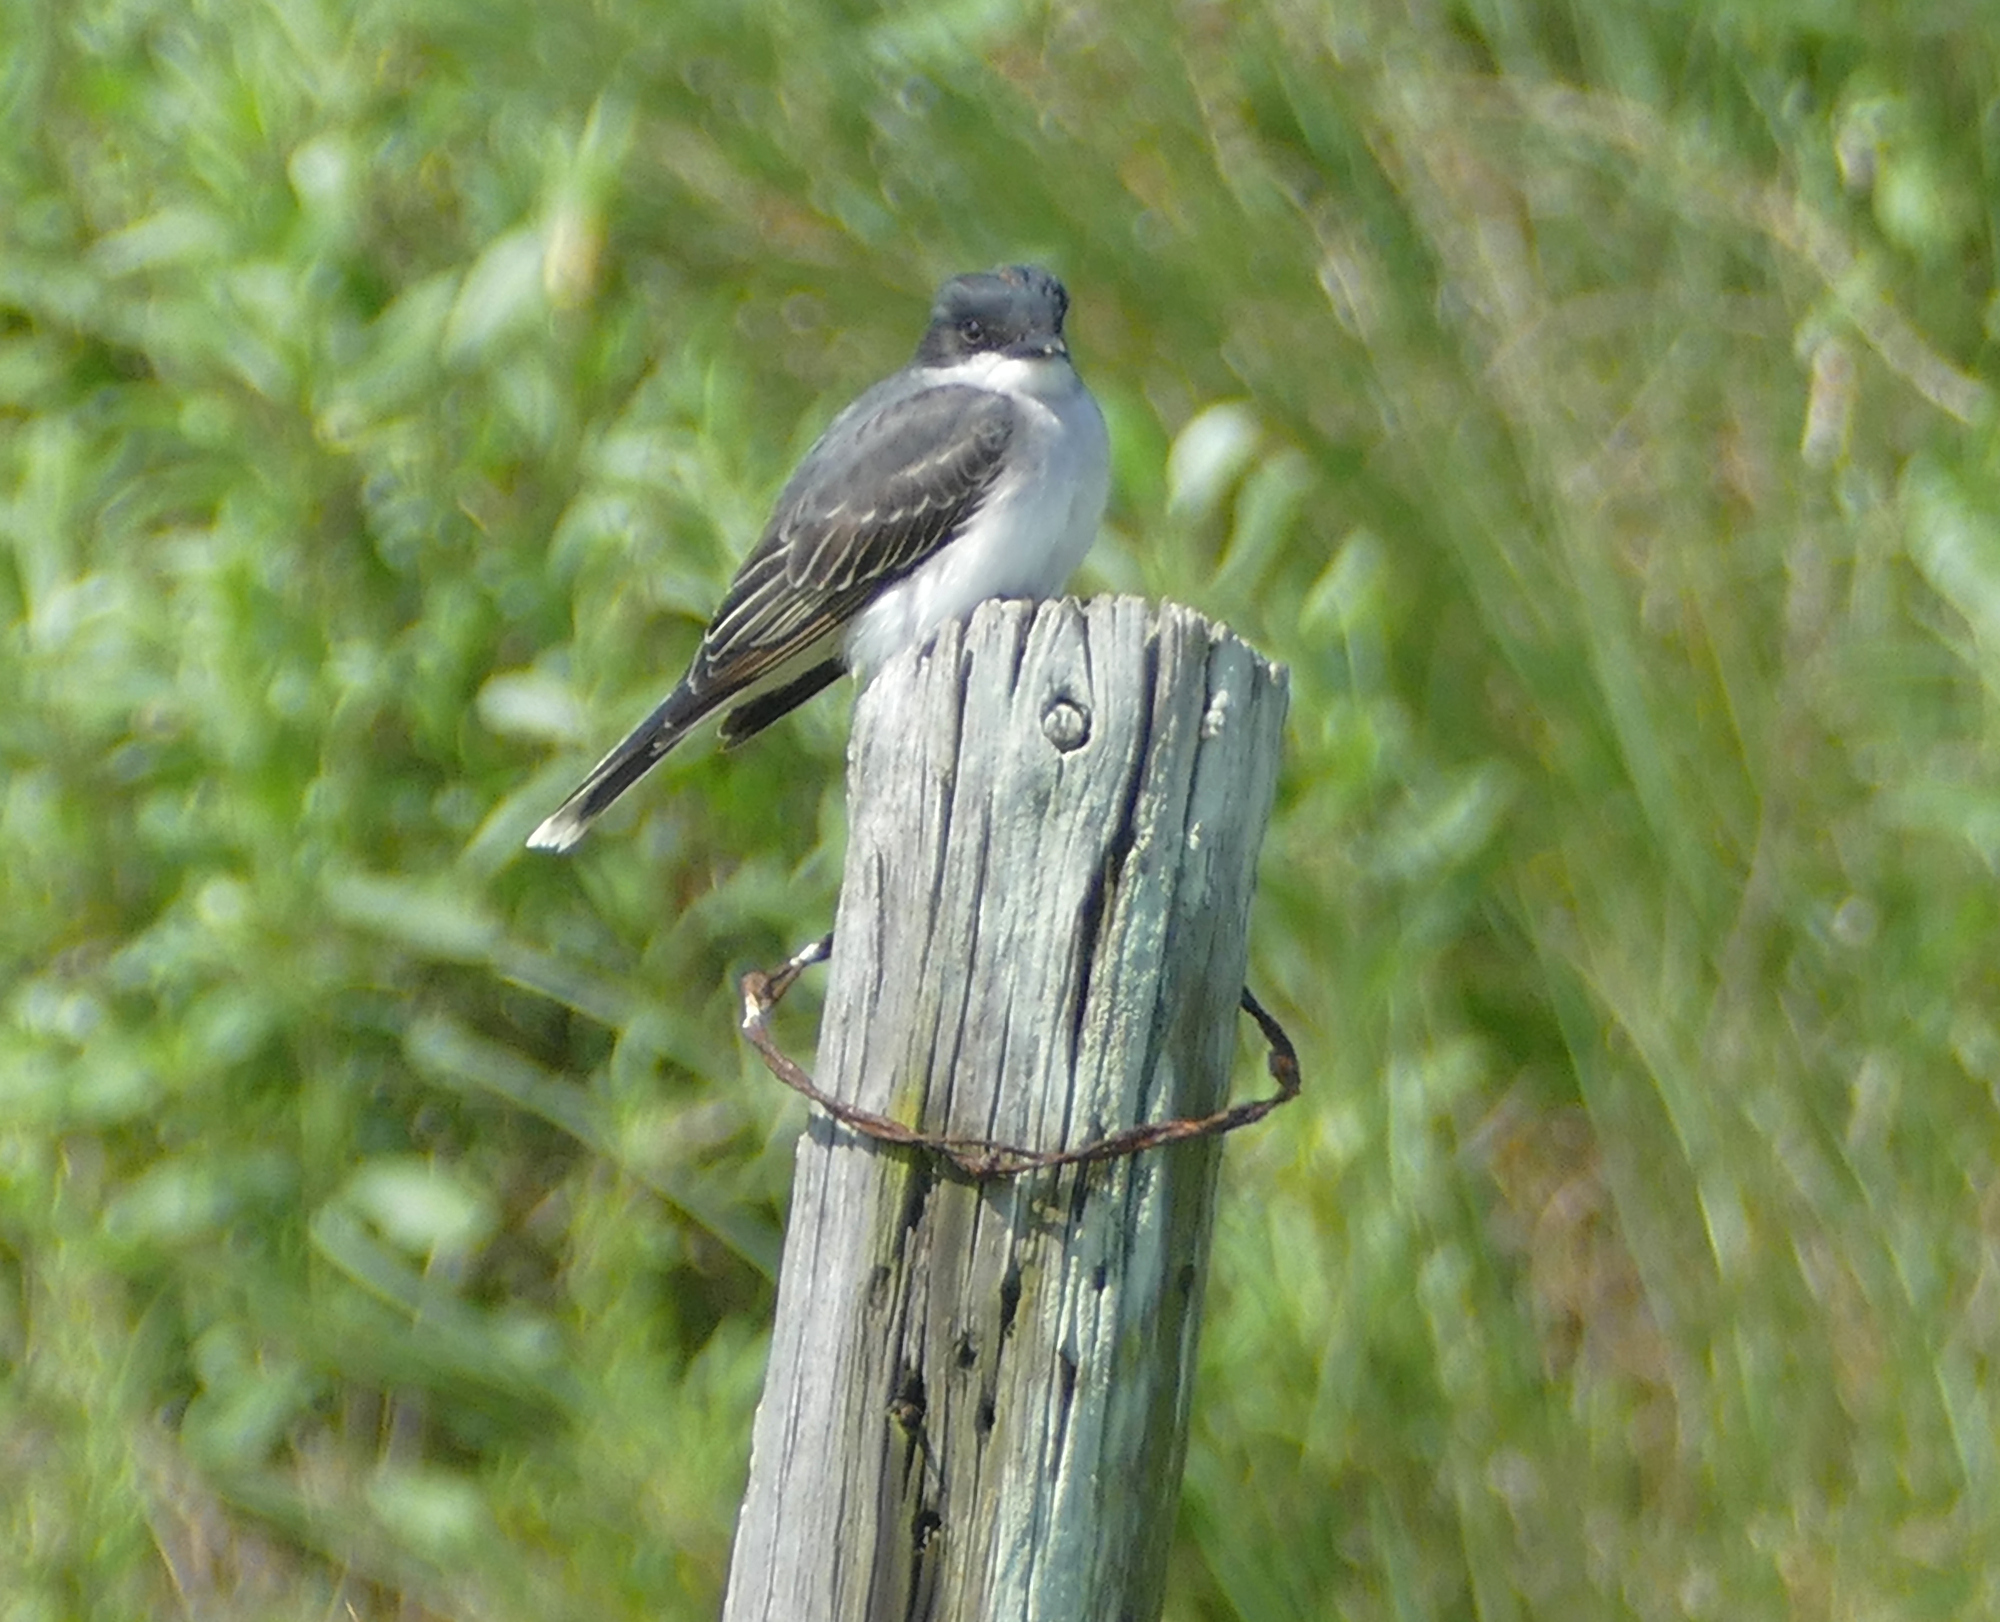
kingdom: Animalia
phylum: Chordata
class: Aves
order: Passeriformes
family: Tyrannidae
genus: Tyrannus
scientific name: Tyrannus tyrannus
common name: Eastern kingbird
